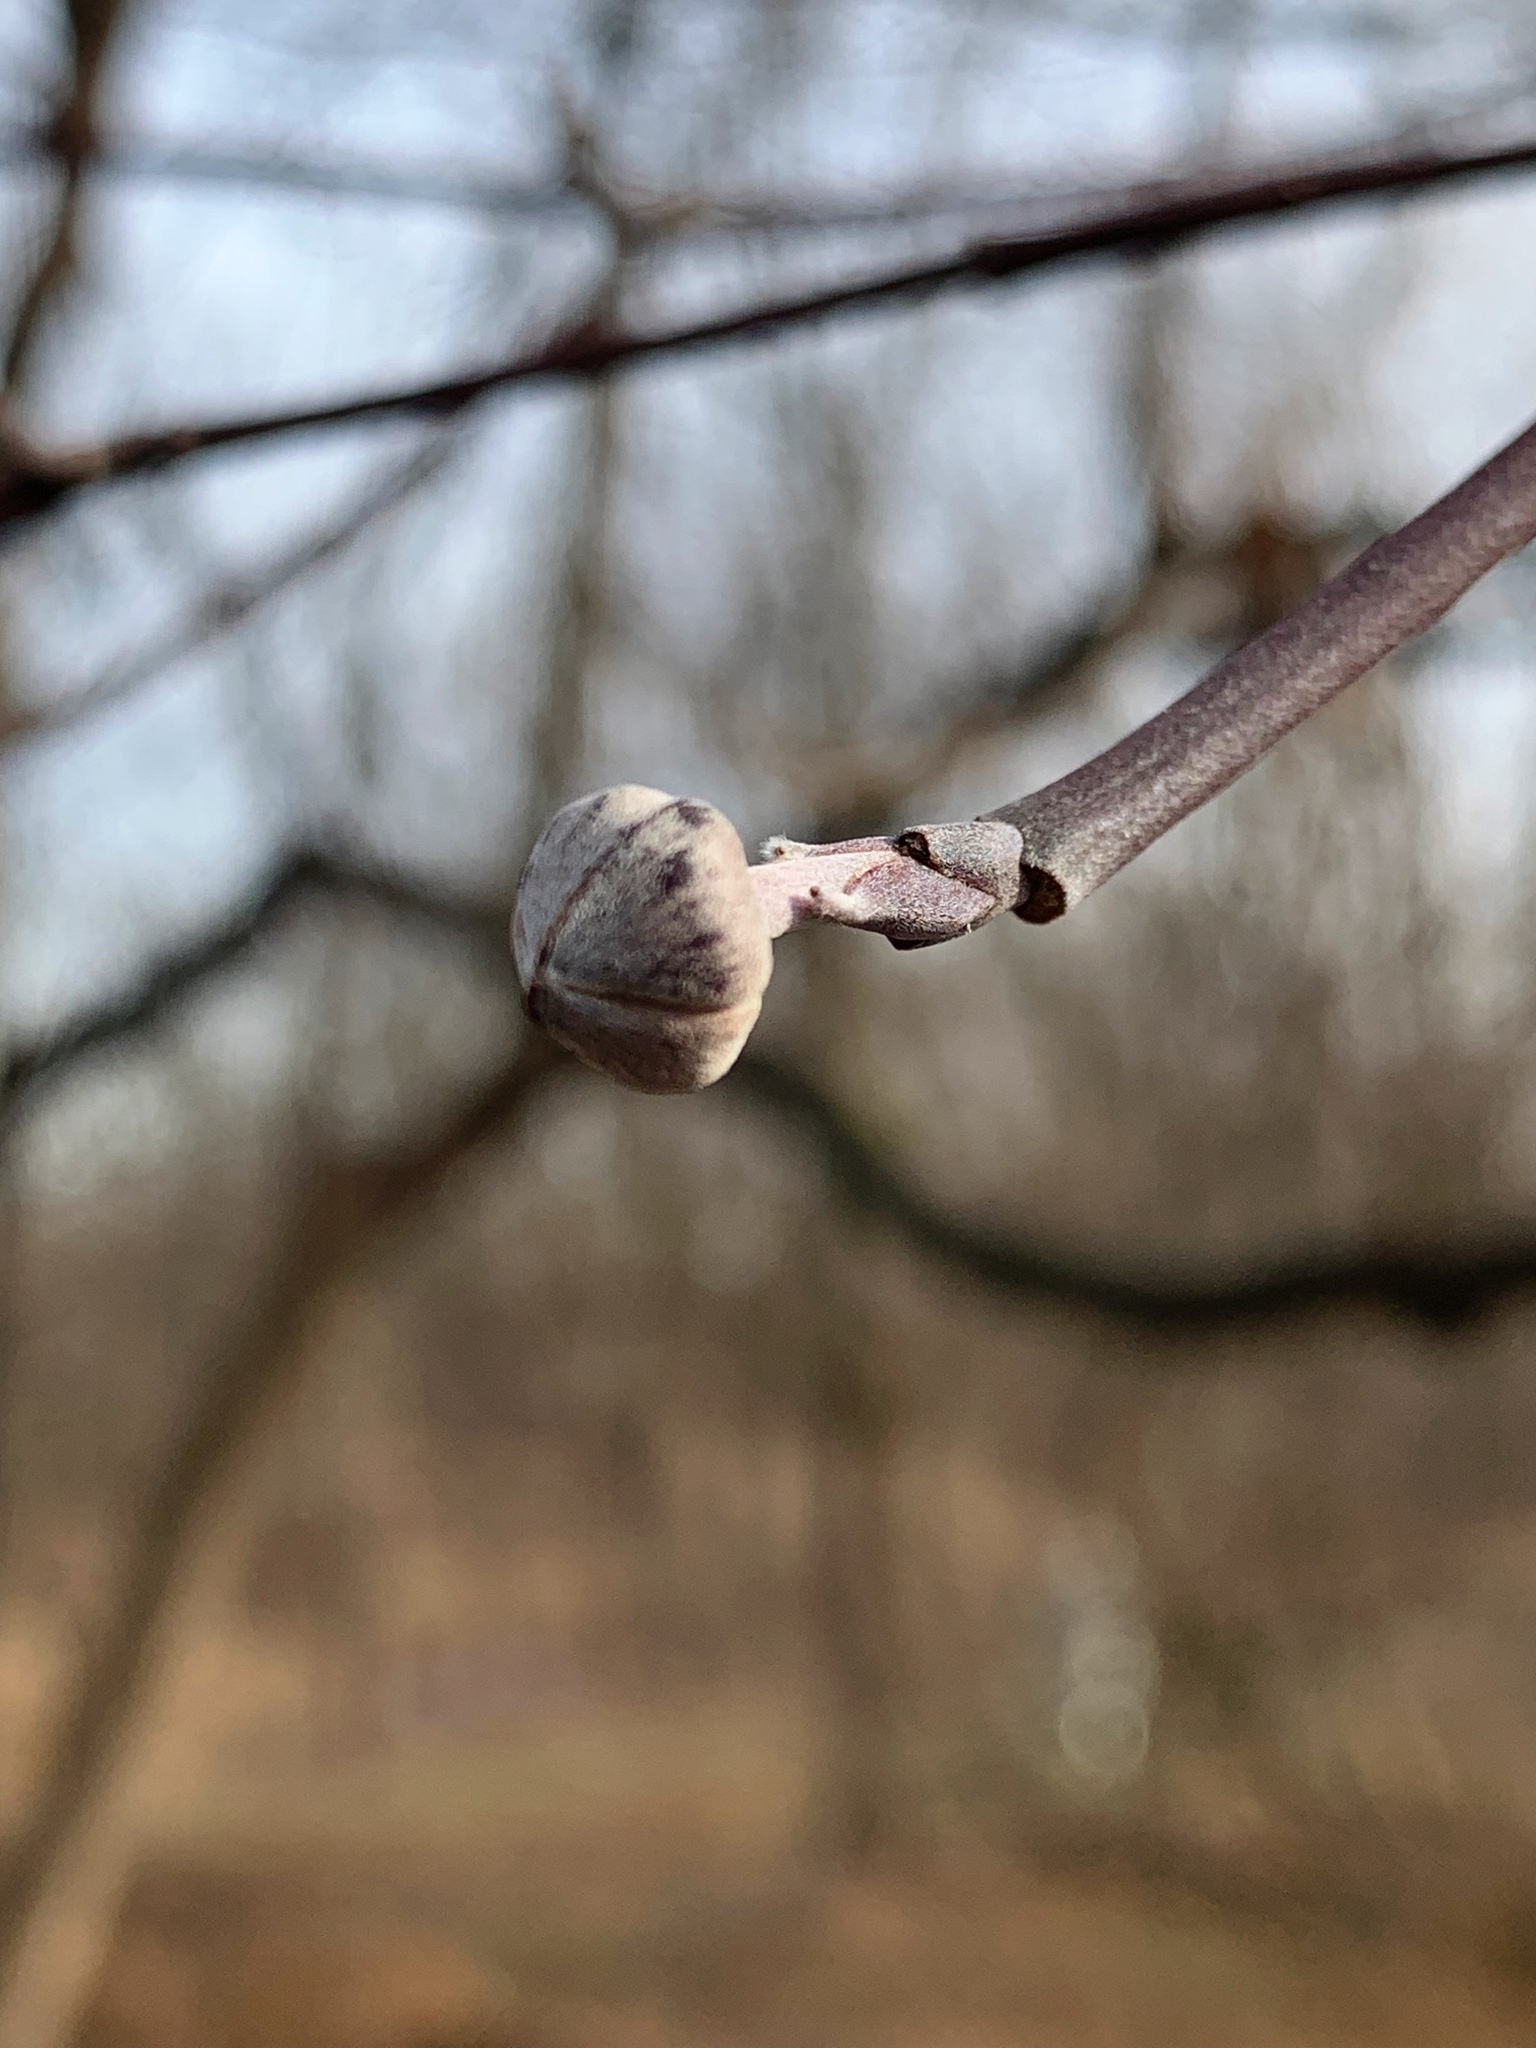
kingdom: Plantae
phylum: Tracheophyta
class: Magnoliopsida
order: Cornales
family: Cornaceae
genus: Cornus
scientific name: Cornus florida
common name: Flowering dogwood
